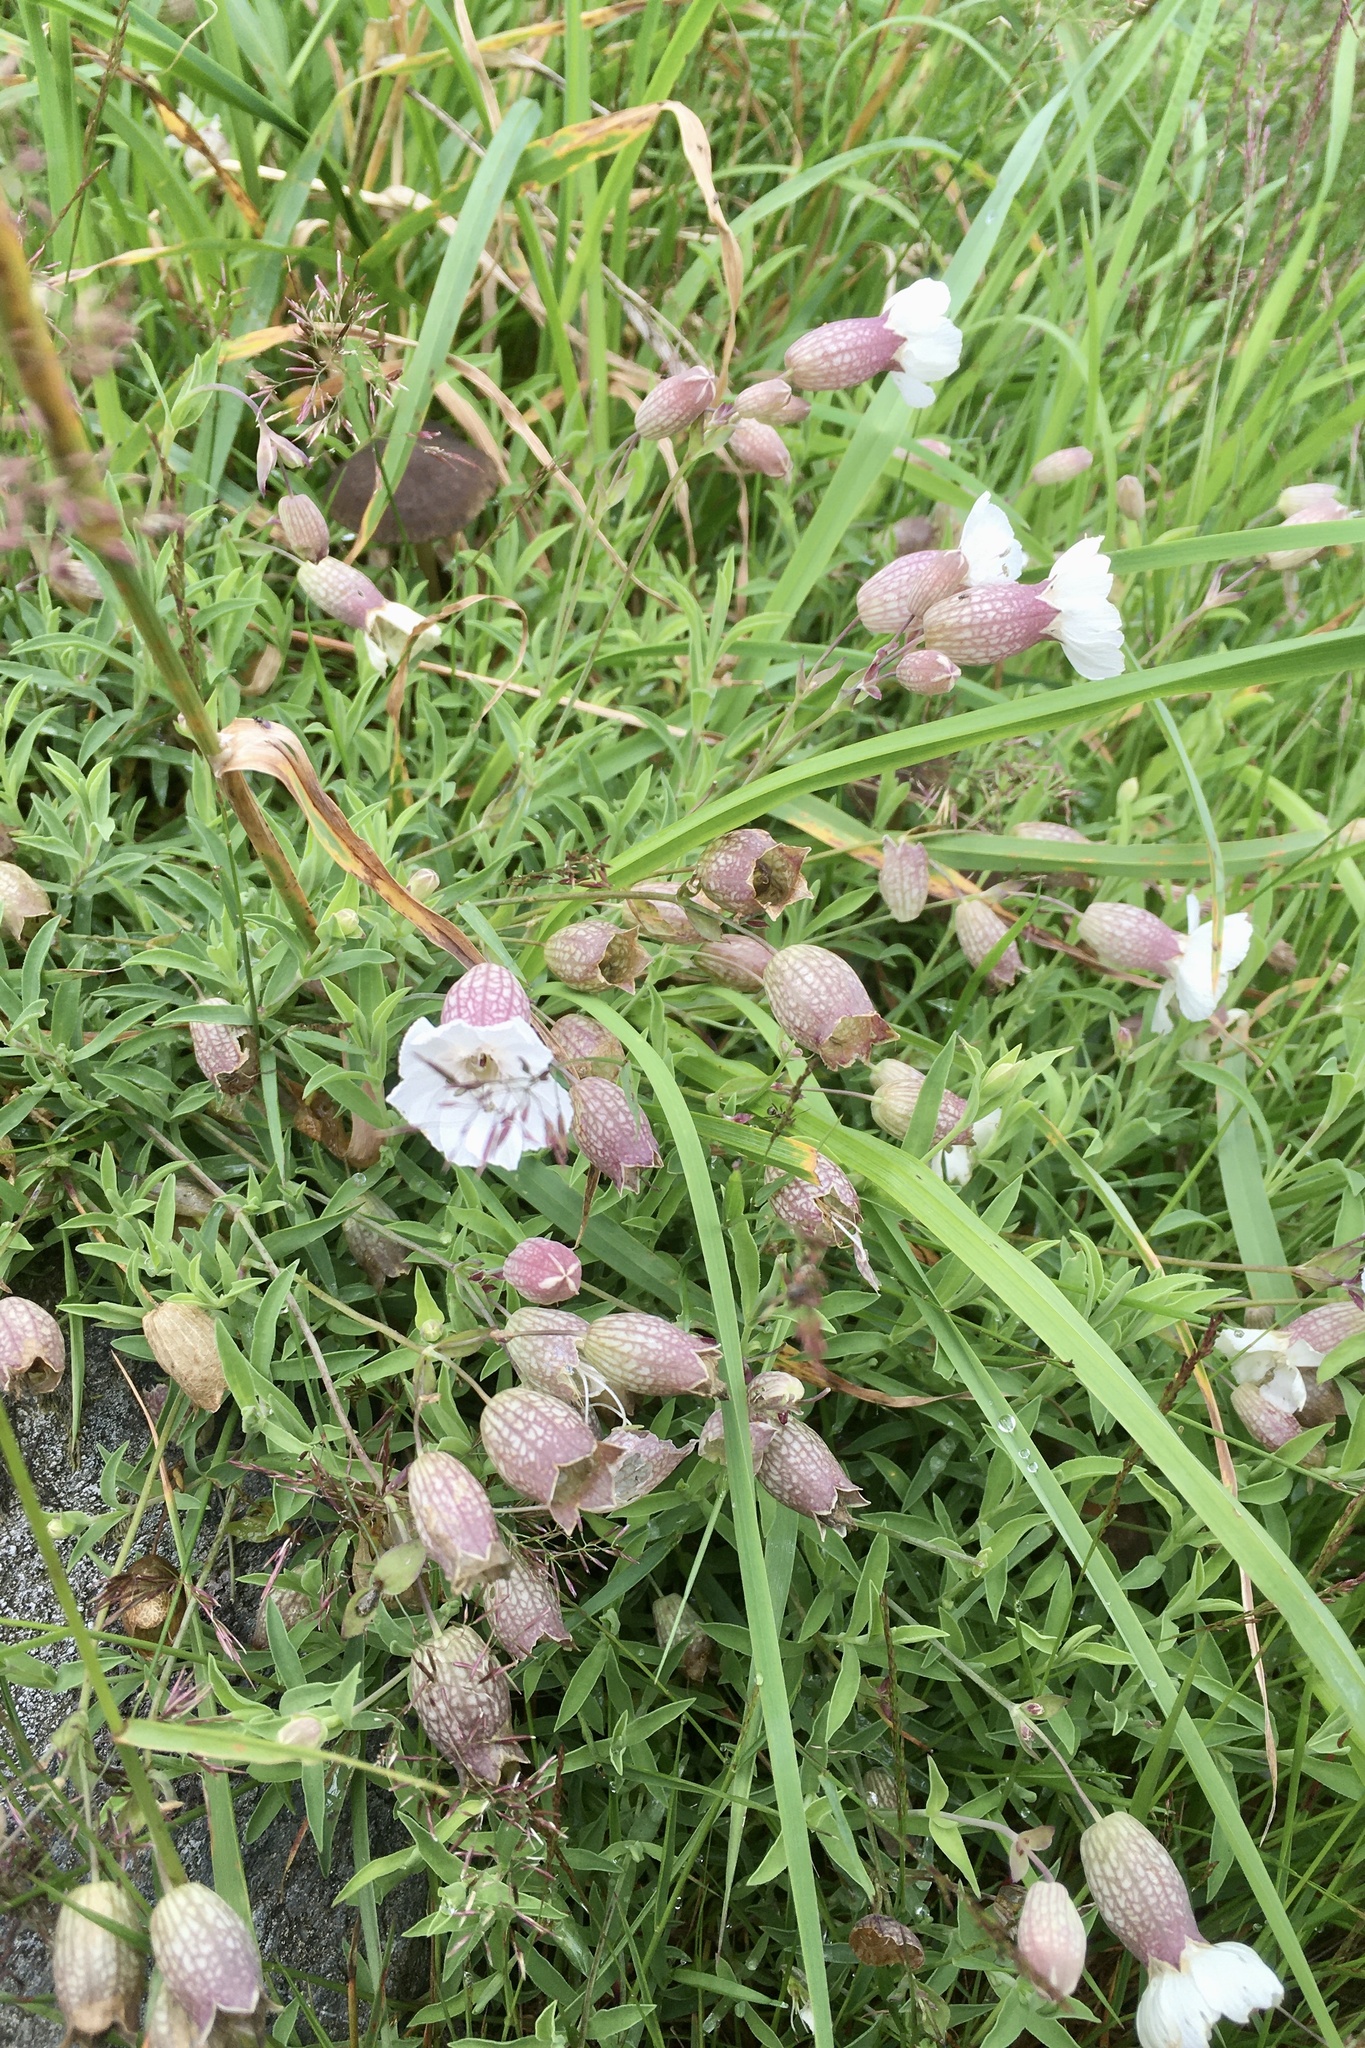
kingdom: Plantae
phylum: Tracheophyta
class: Magnoliopsida
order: Caryophyllales
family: Caryophyllaceae
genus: Silene
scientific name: Silene uniflora
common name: Sea campion
